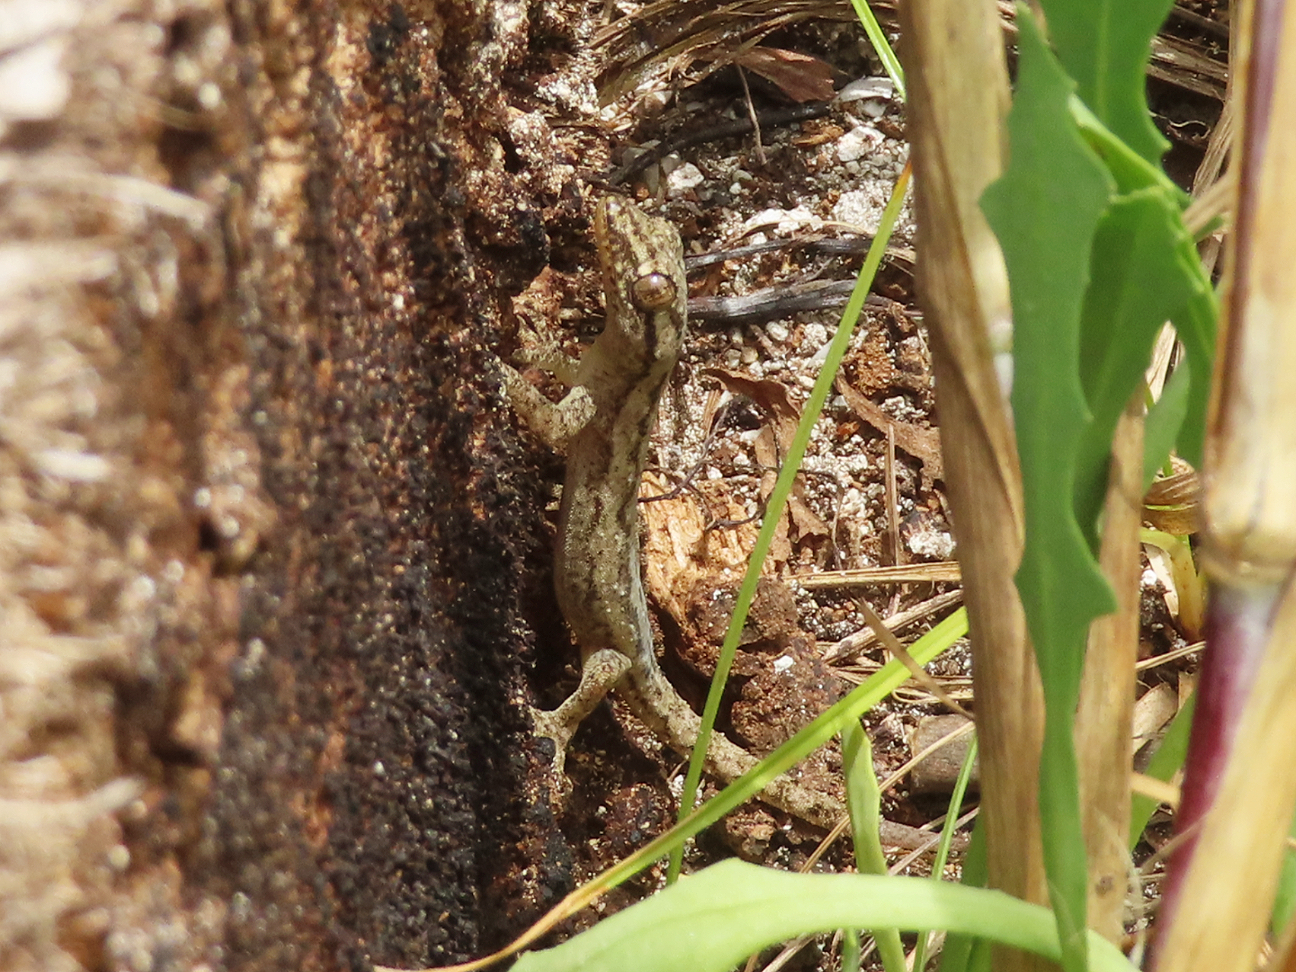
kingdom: Animalia
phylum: Chordata
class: Squamata
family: Gekkonidae
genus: Hemidactylus
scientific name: Hemidactylus frenatus
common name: Common house gecko
